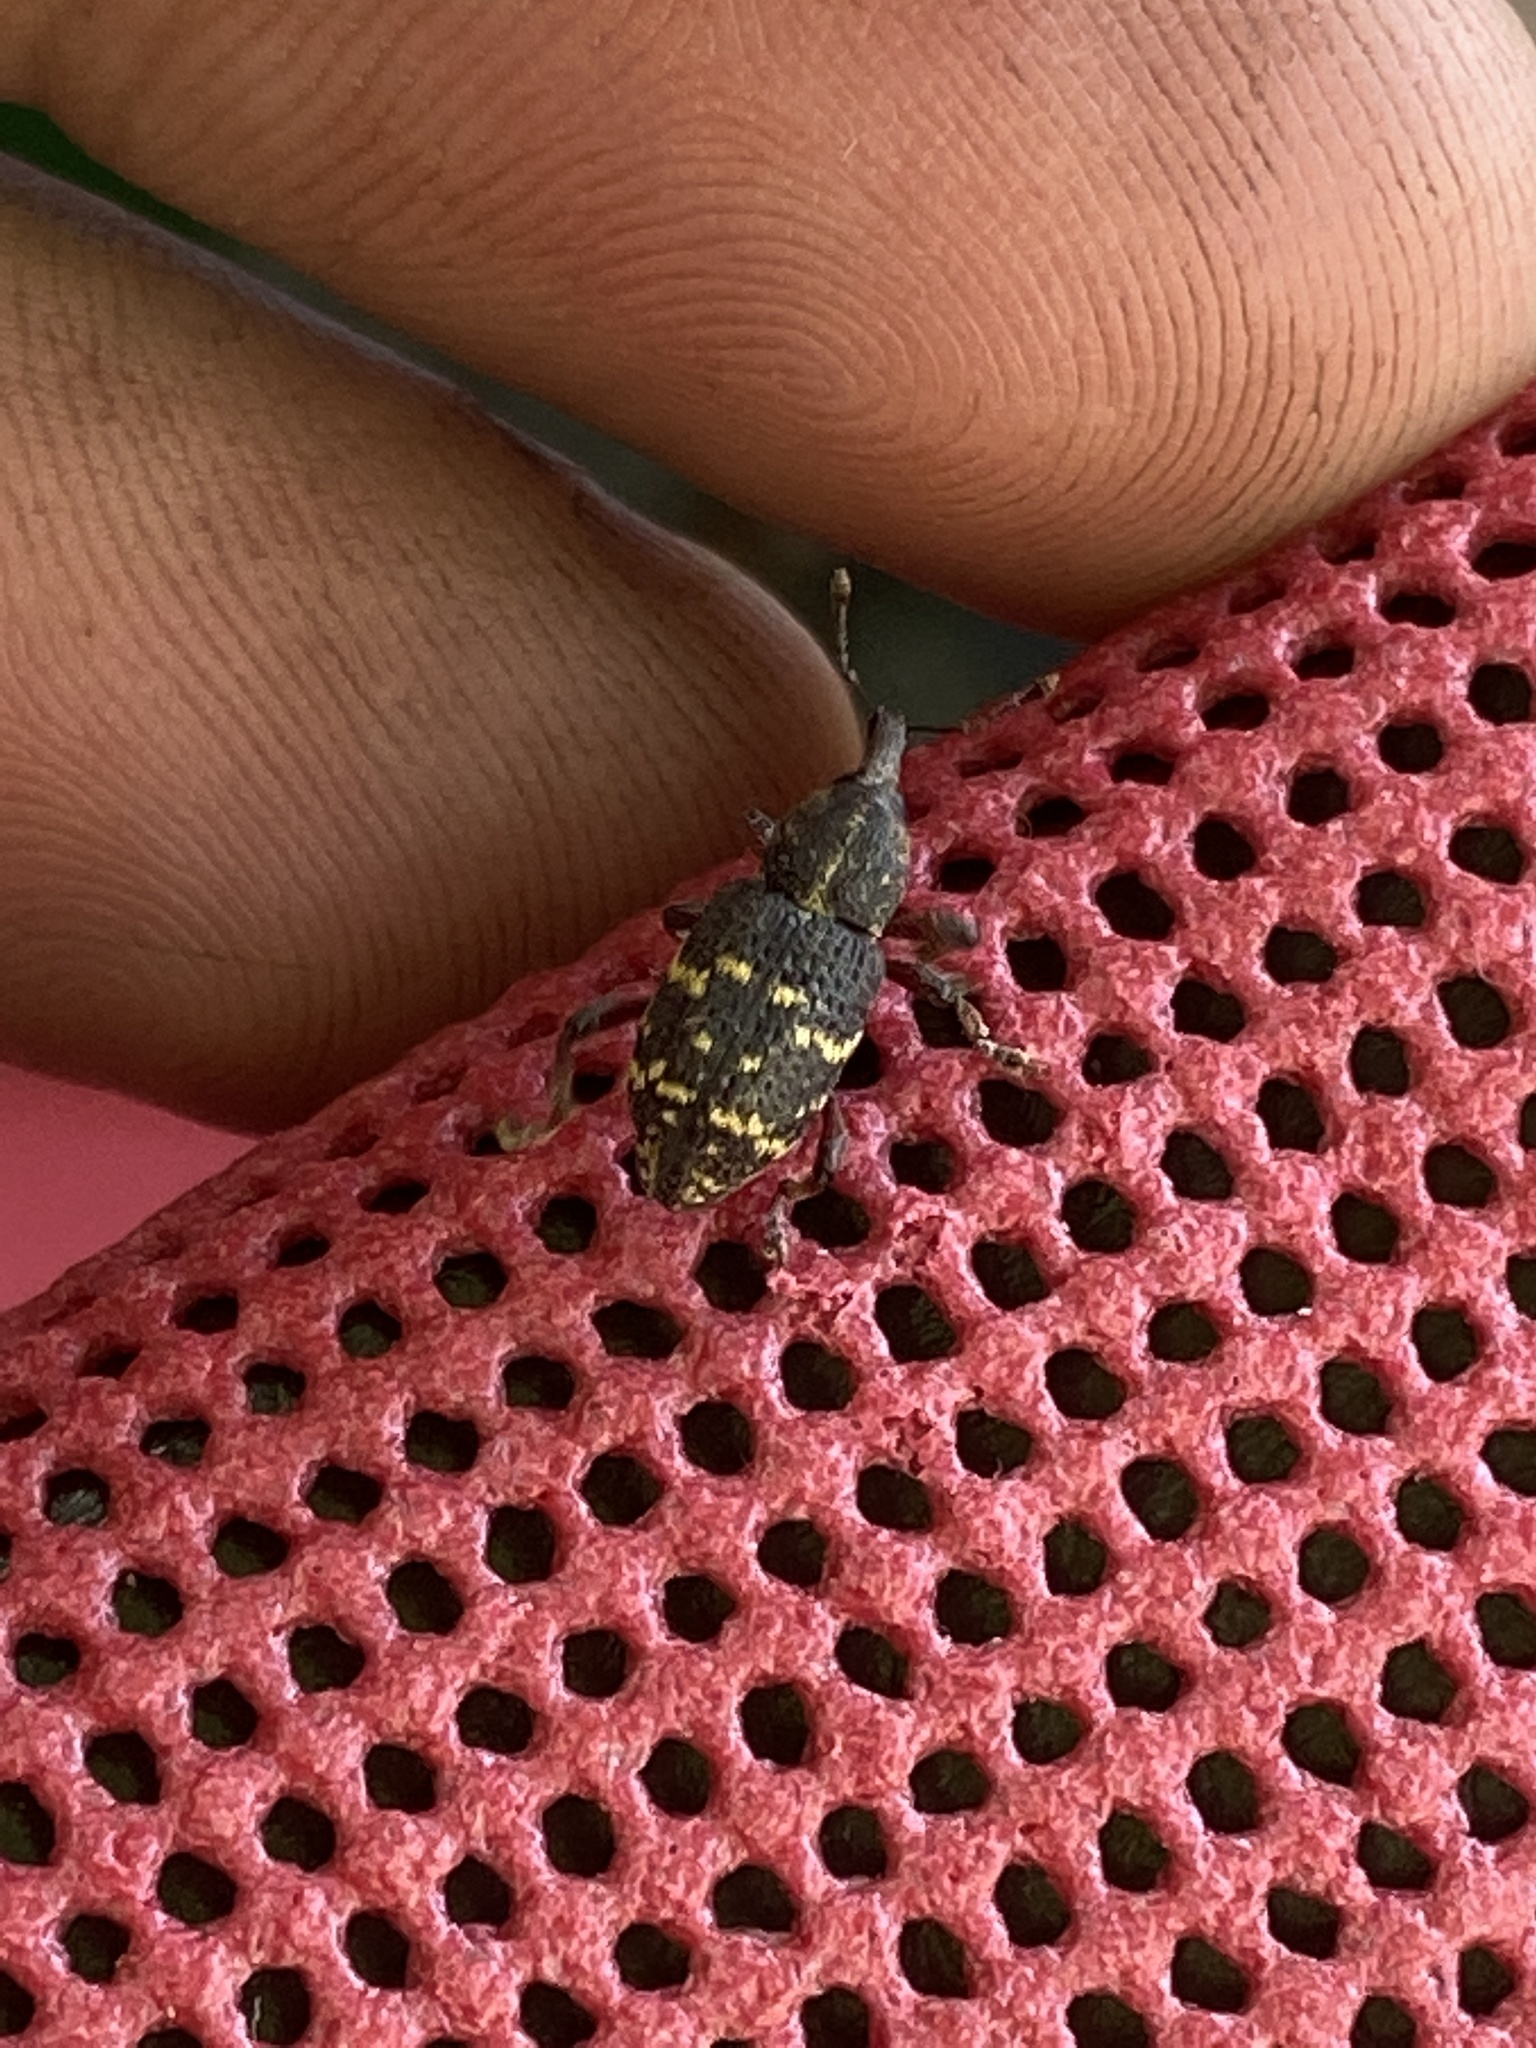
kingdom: Animalia
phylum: Arthropoda
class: Insecta
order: Coleoptera
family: Curculionidae
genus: Hylobius
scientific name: Hylobius abietis
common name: Large pine weevil
